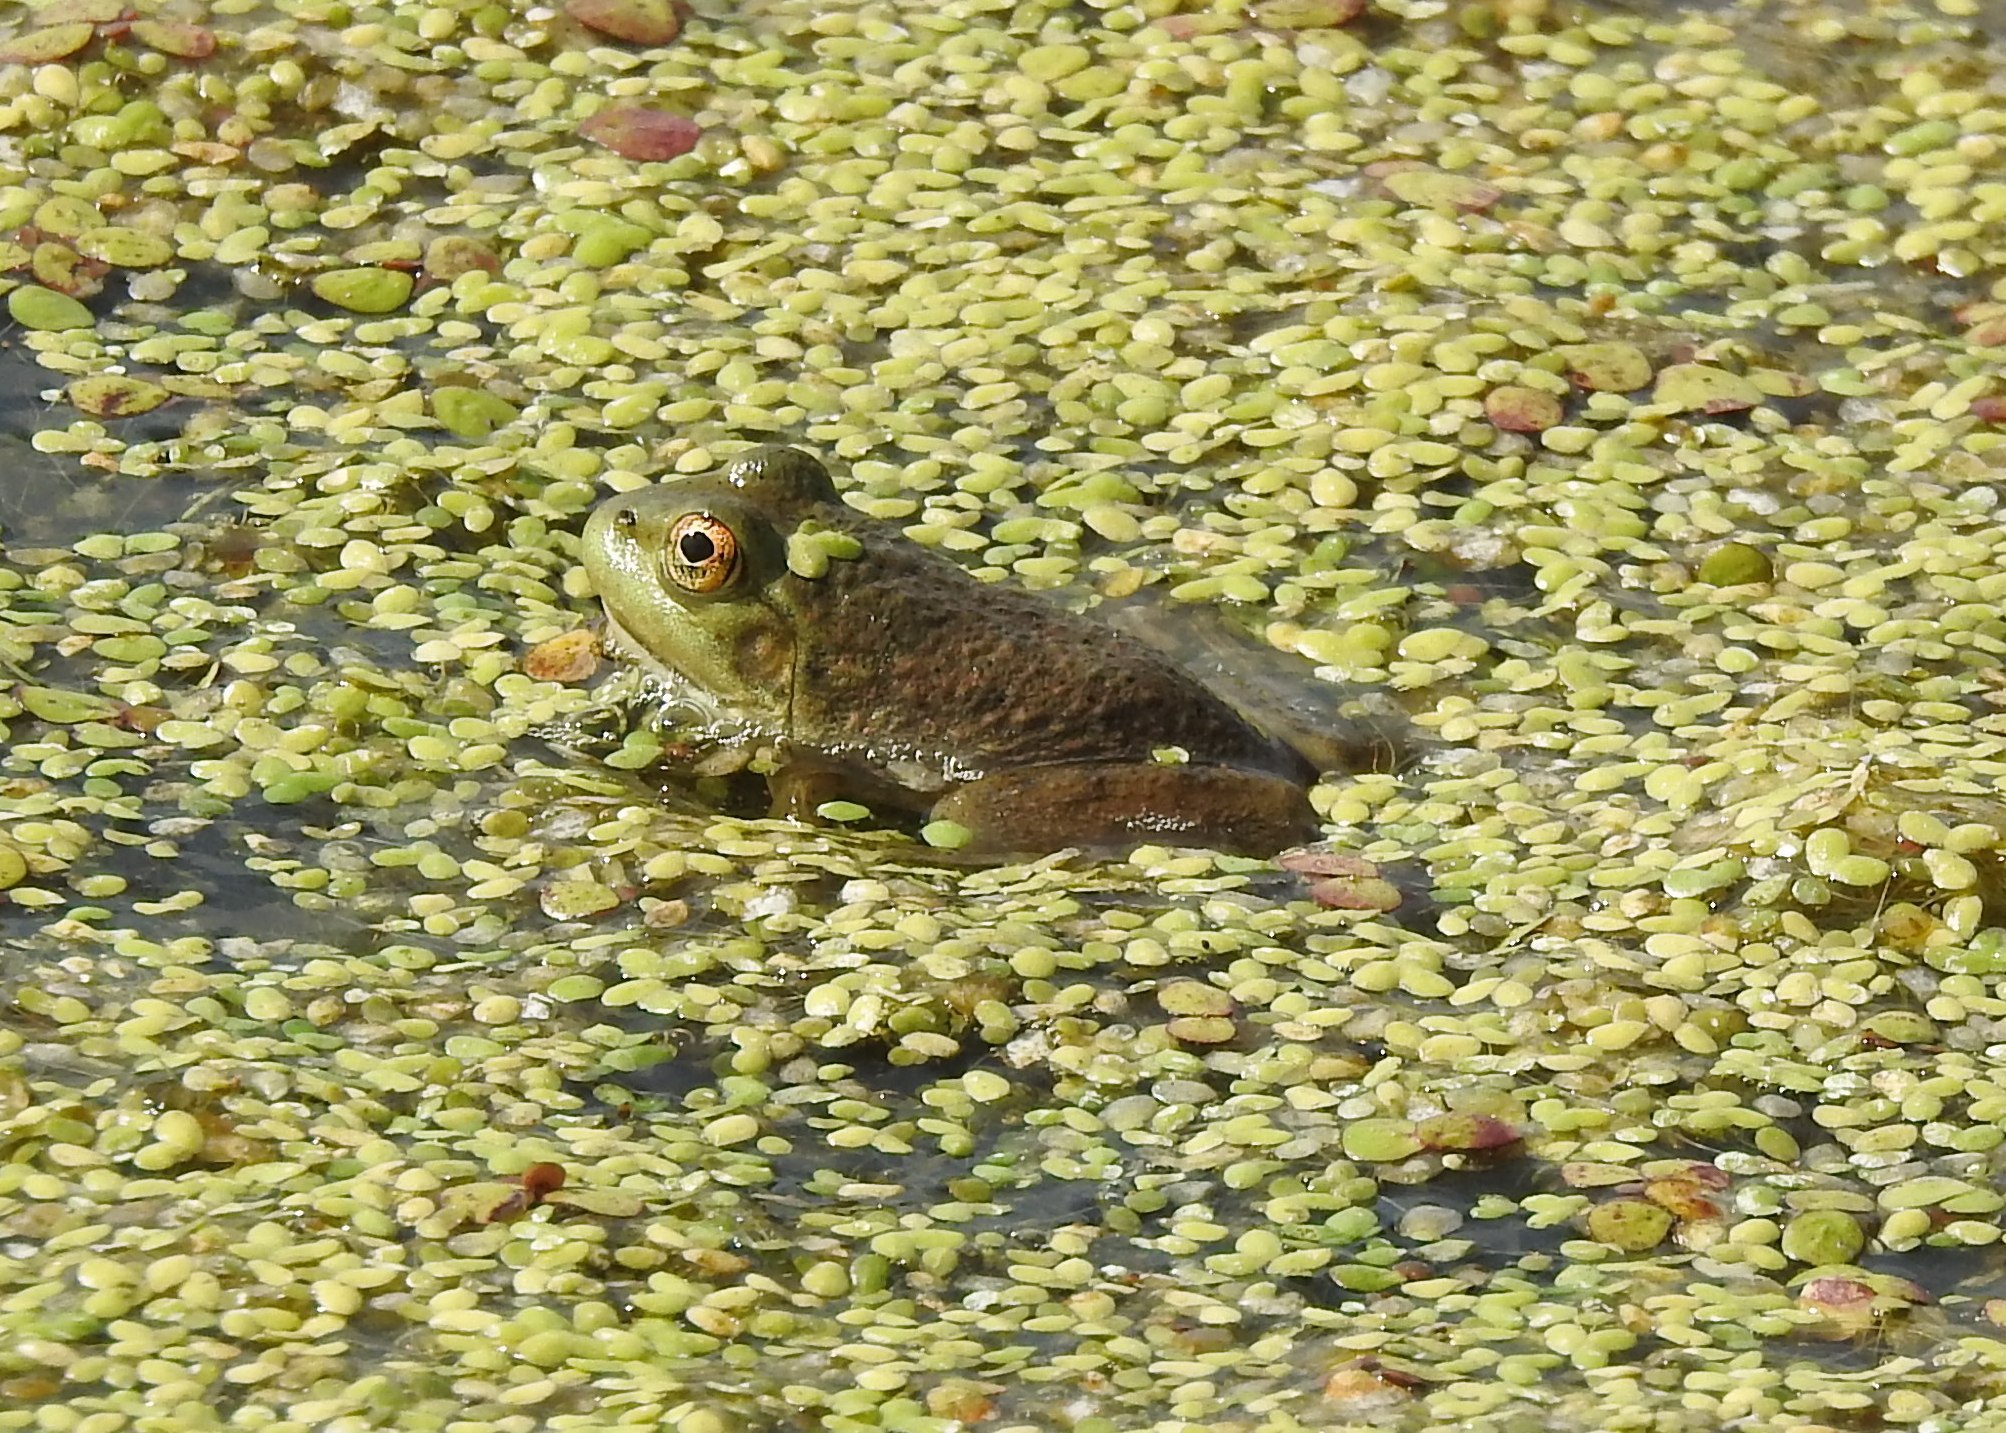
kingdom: Animalia
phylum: Chordata
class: Amphibia
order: Anura
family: Ranidae
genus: Lithobates
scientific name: Lithobates catesbeianus
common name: American bullfrog
